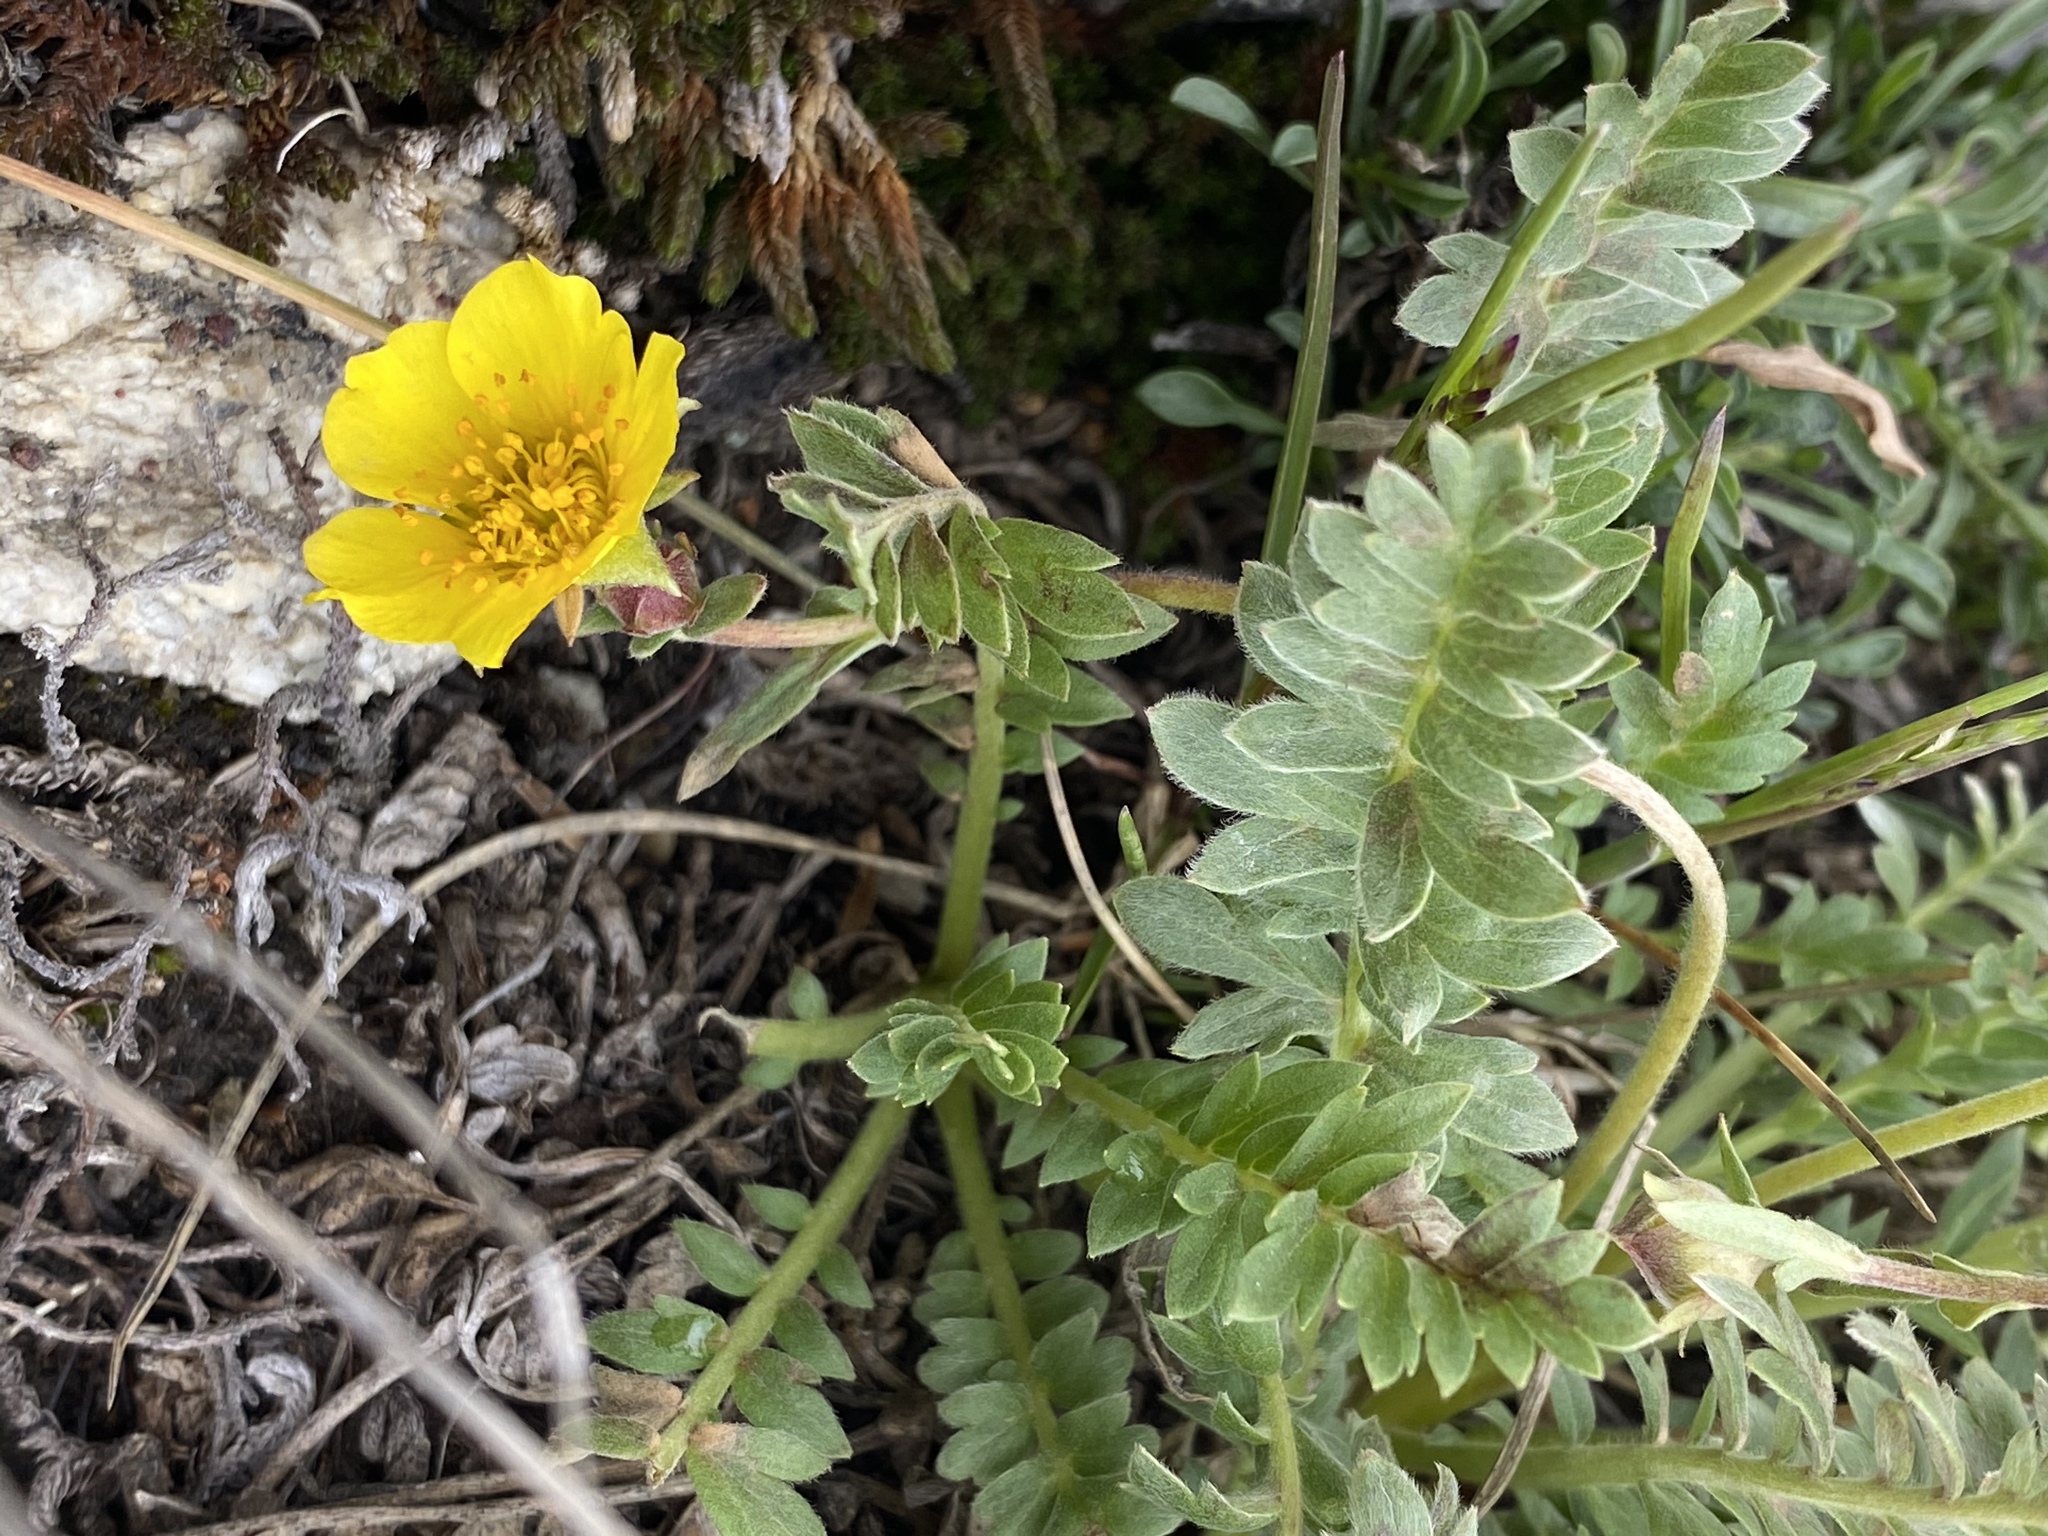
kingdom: Plantae
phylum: Tracheophyta
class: Magnoliopsida
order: Rosales
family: Rosaceae
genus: Geum
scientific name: Geum rossii
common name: Alpine avens
